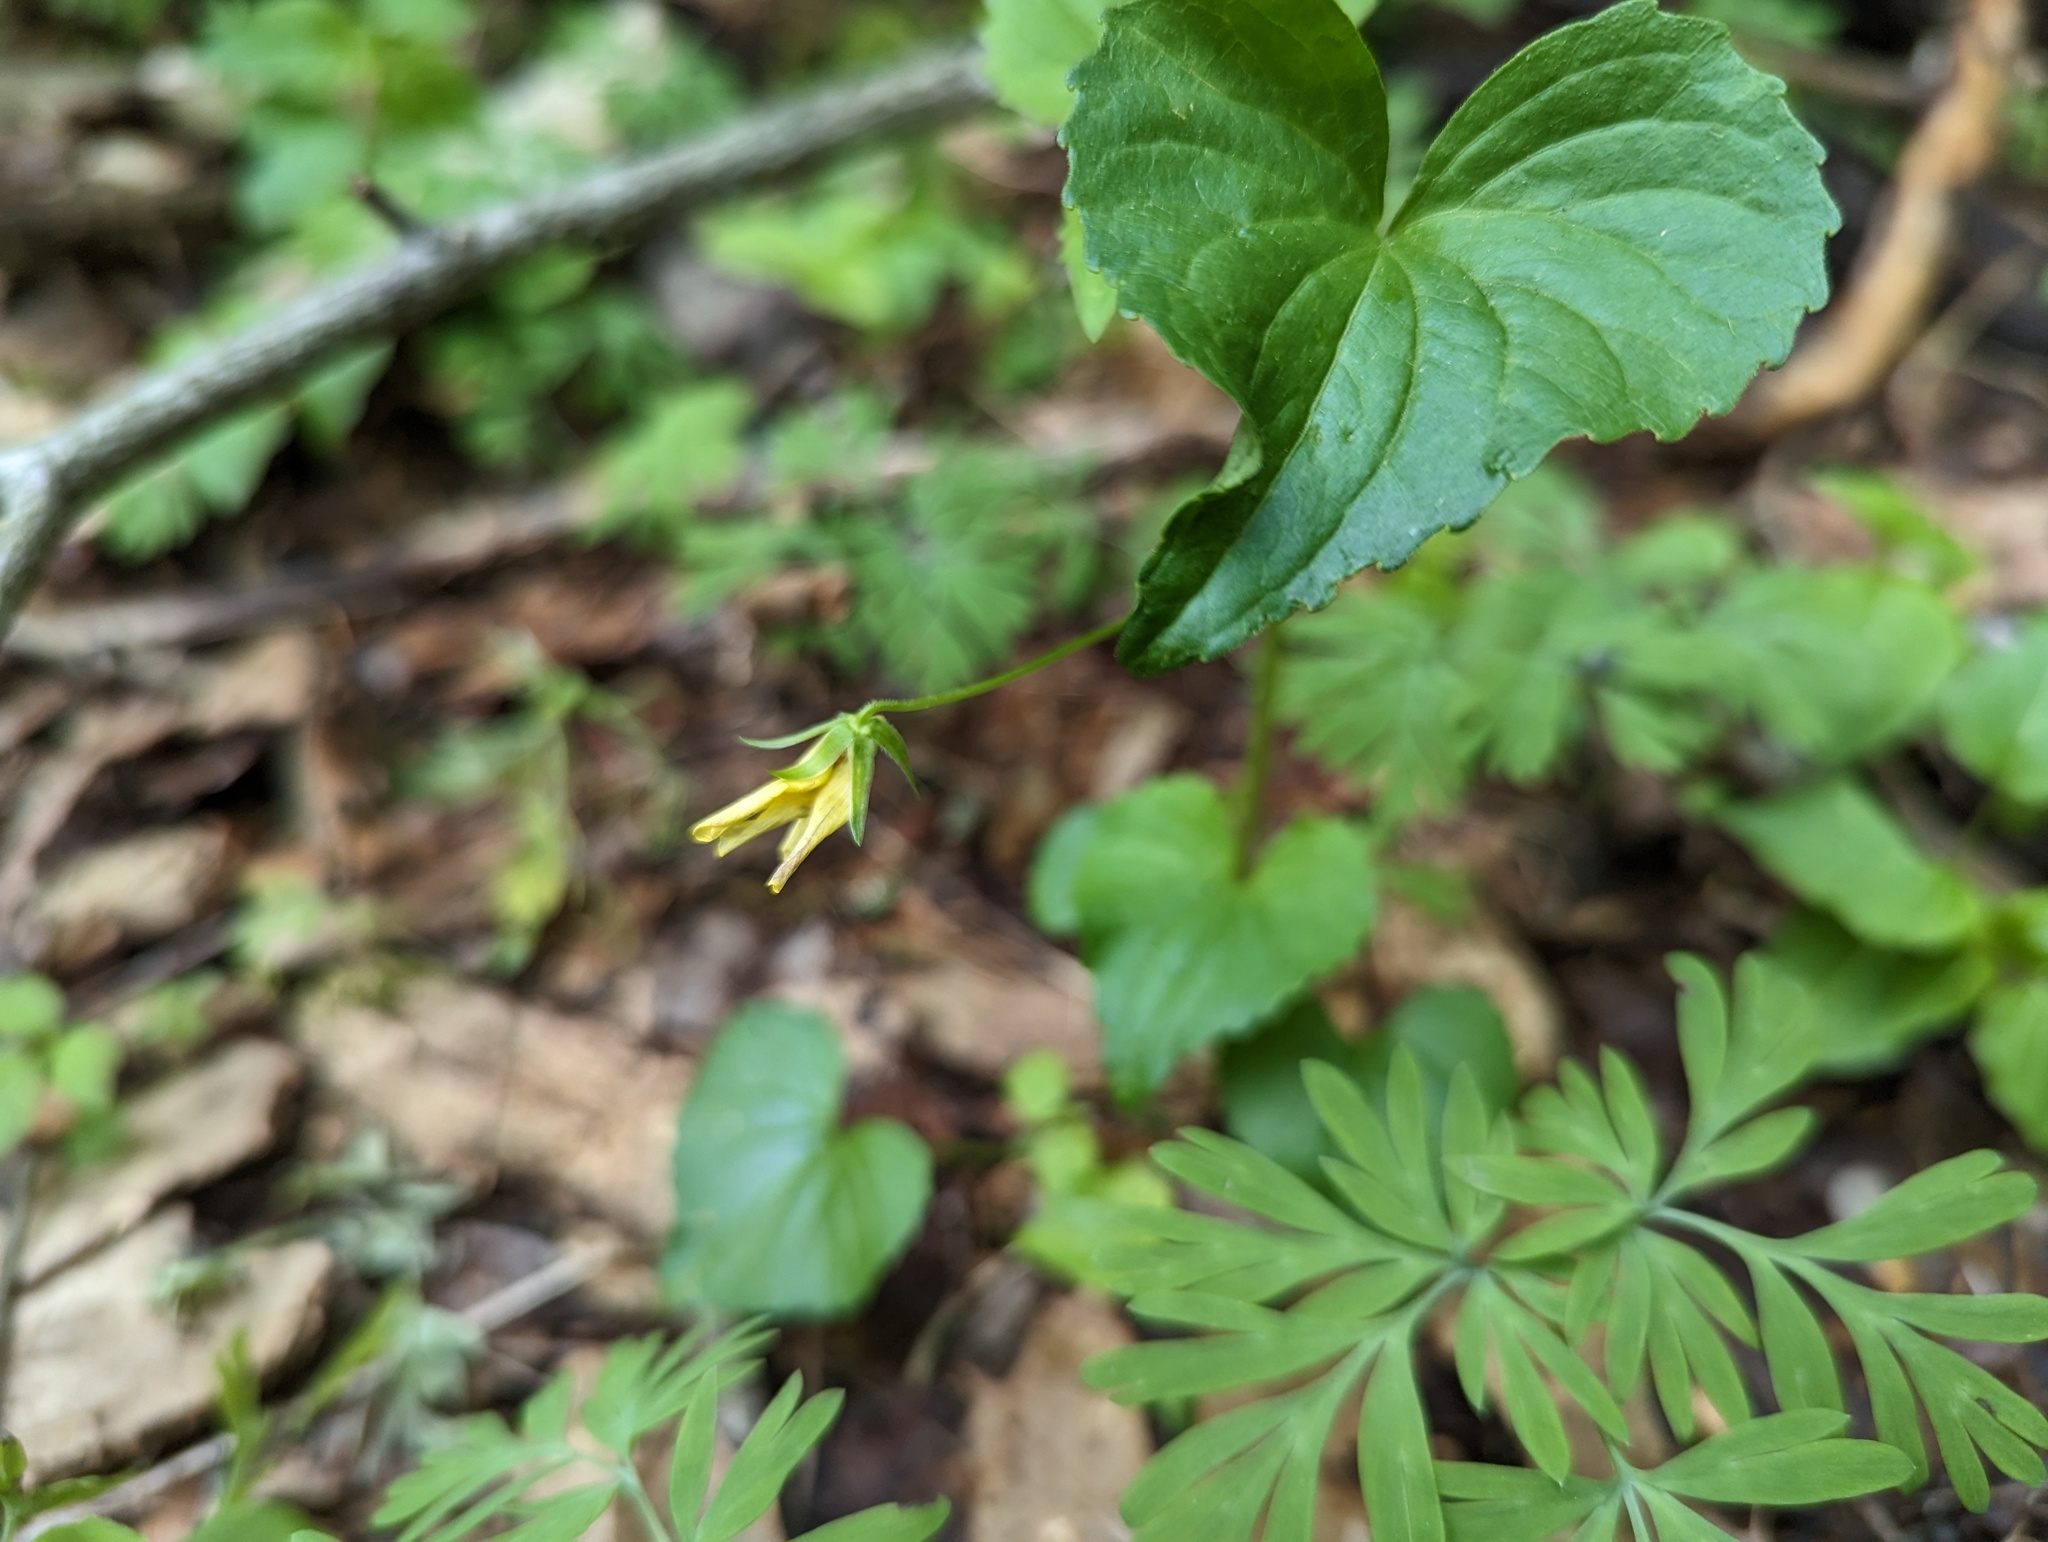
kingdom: Plantae
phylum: Tracheophyta
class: Magnoliopsida
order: Malpighiales
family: Violaceae
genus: Viola
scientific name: Viola eriocarpa
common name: Smooth yellow violet
